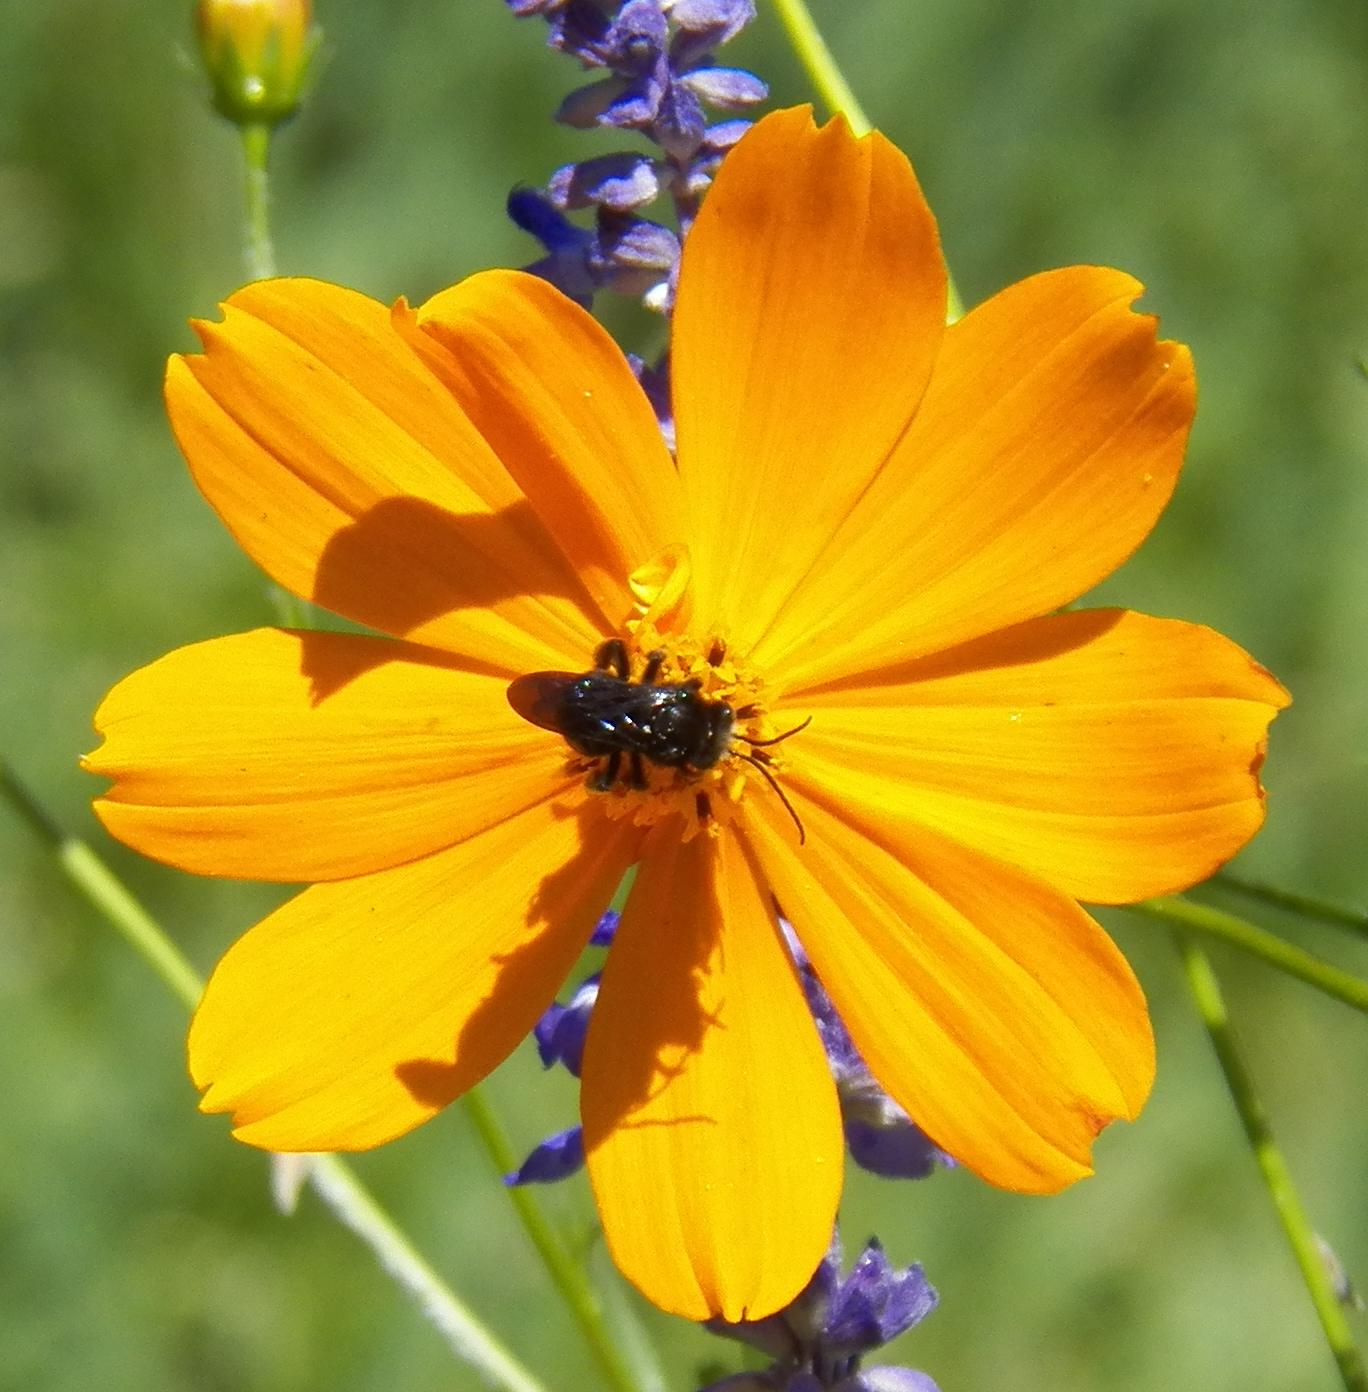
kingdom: Animalia
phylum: Arthropoda
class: Insecta
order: Hymenoptera
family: Apidae
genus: Melissodes
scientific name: Melissodes bimaculatus
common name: Two-spotted long-horned bee
